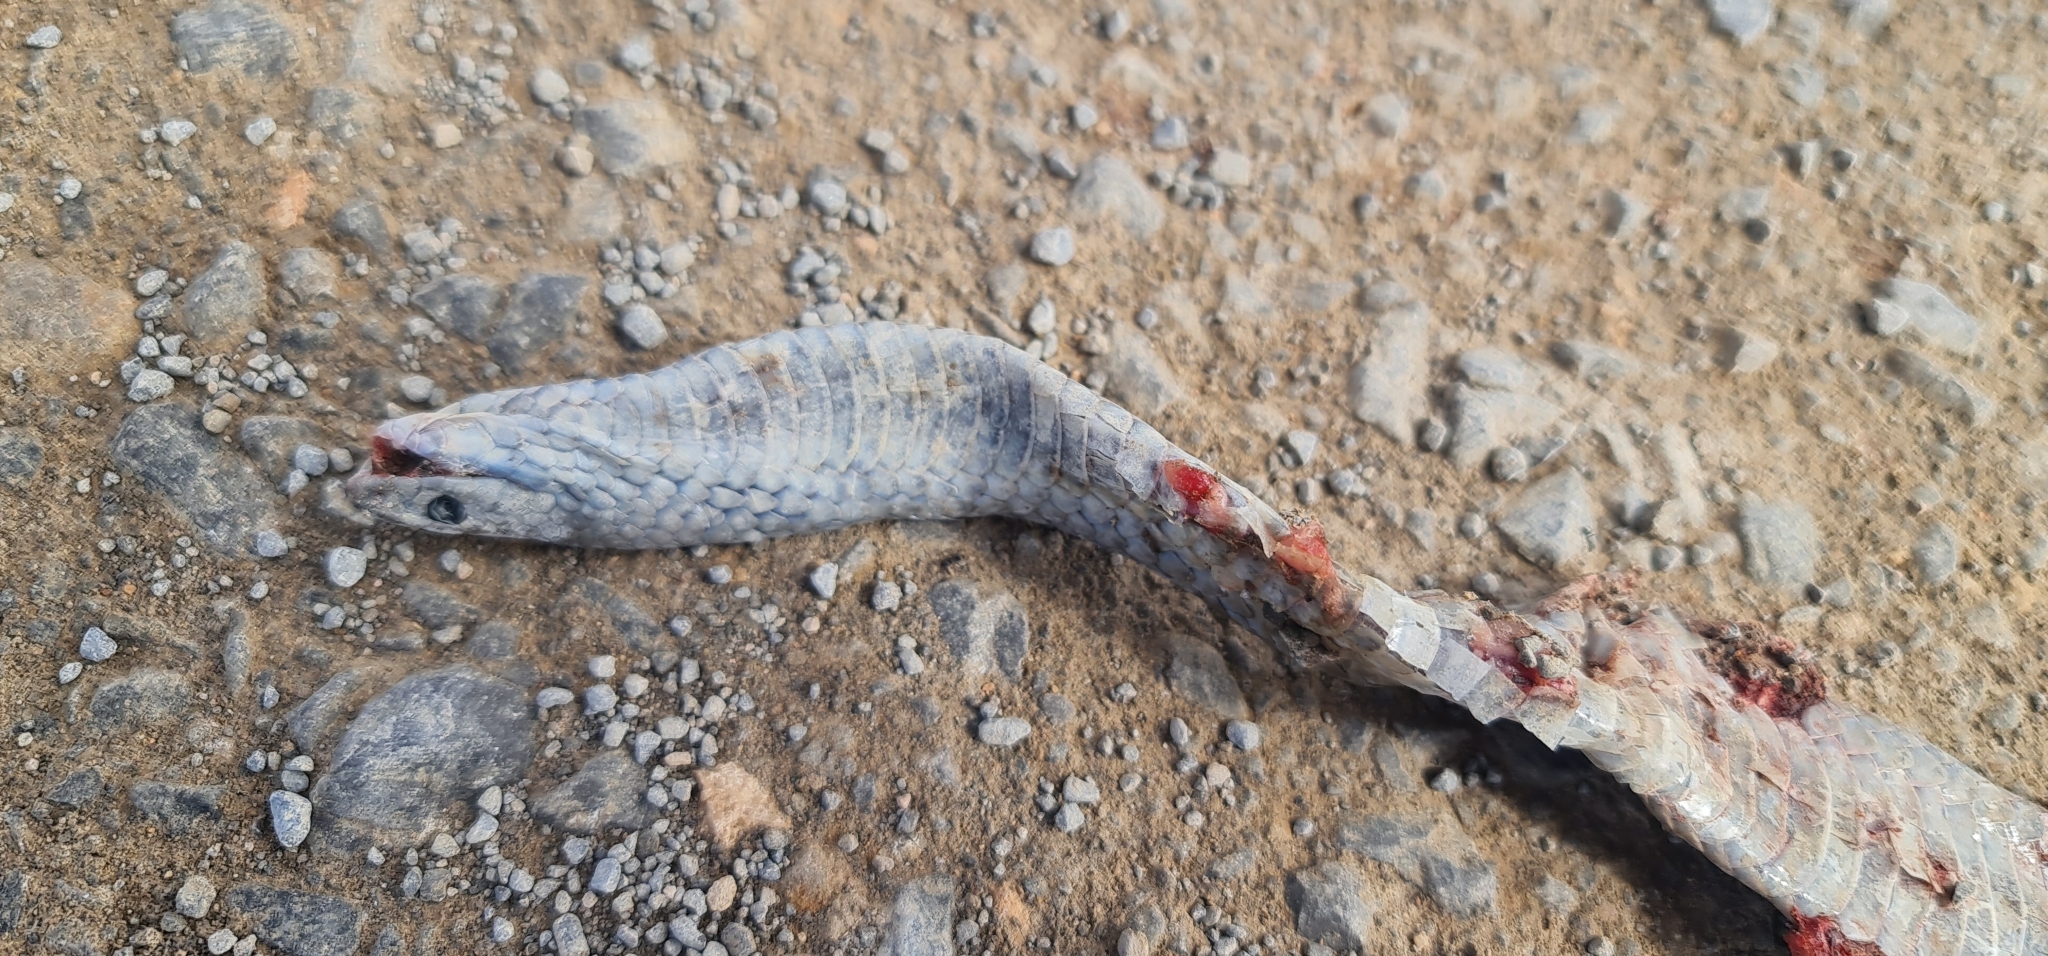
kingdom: Animalia
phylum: Chordata
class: Squamata
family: Elapidae
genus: Pseudonaja
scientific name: Pseudonaja inframacula
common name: Peninsula brown snake
